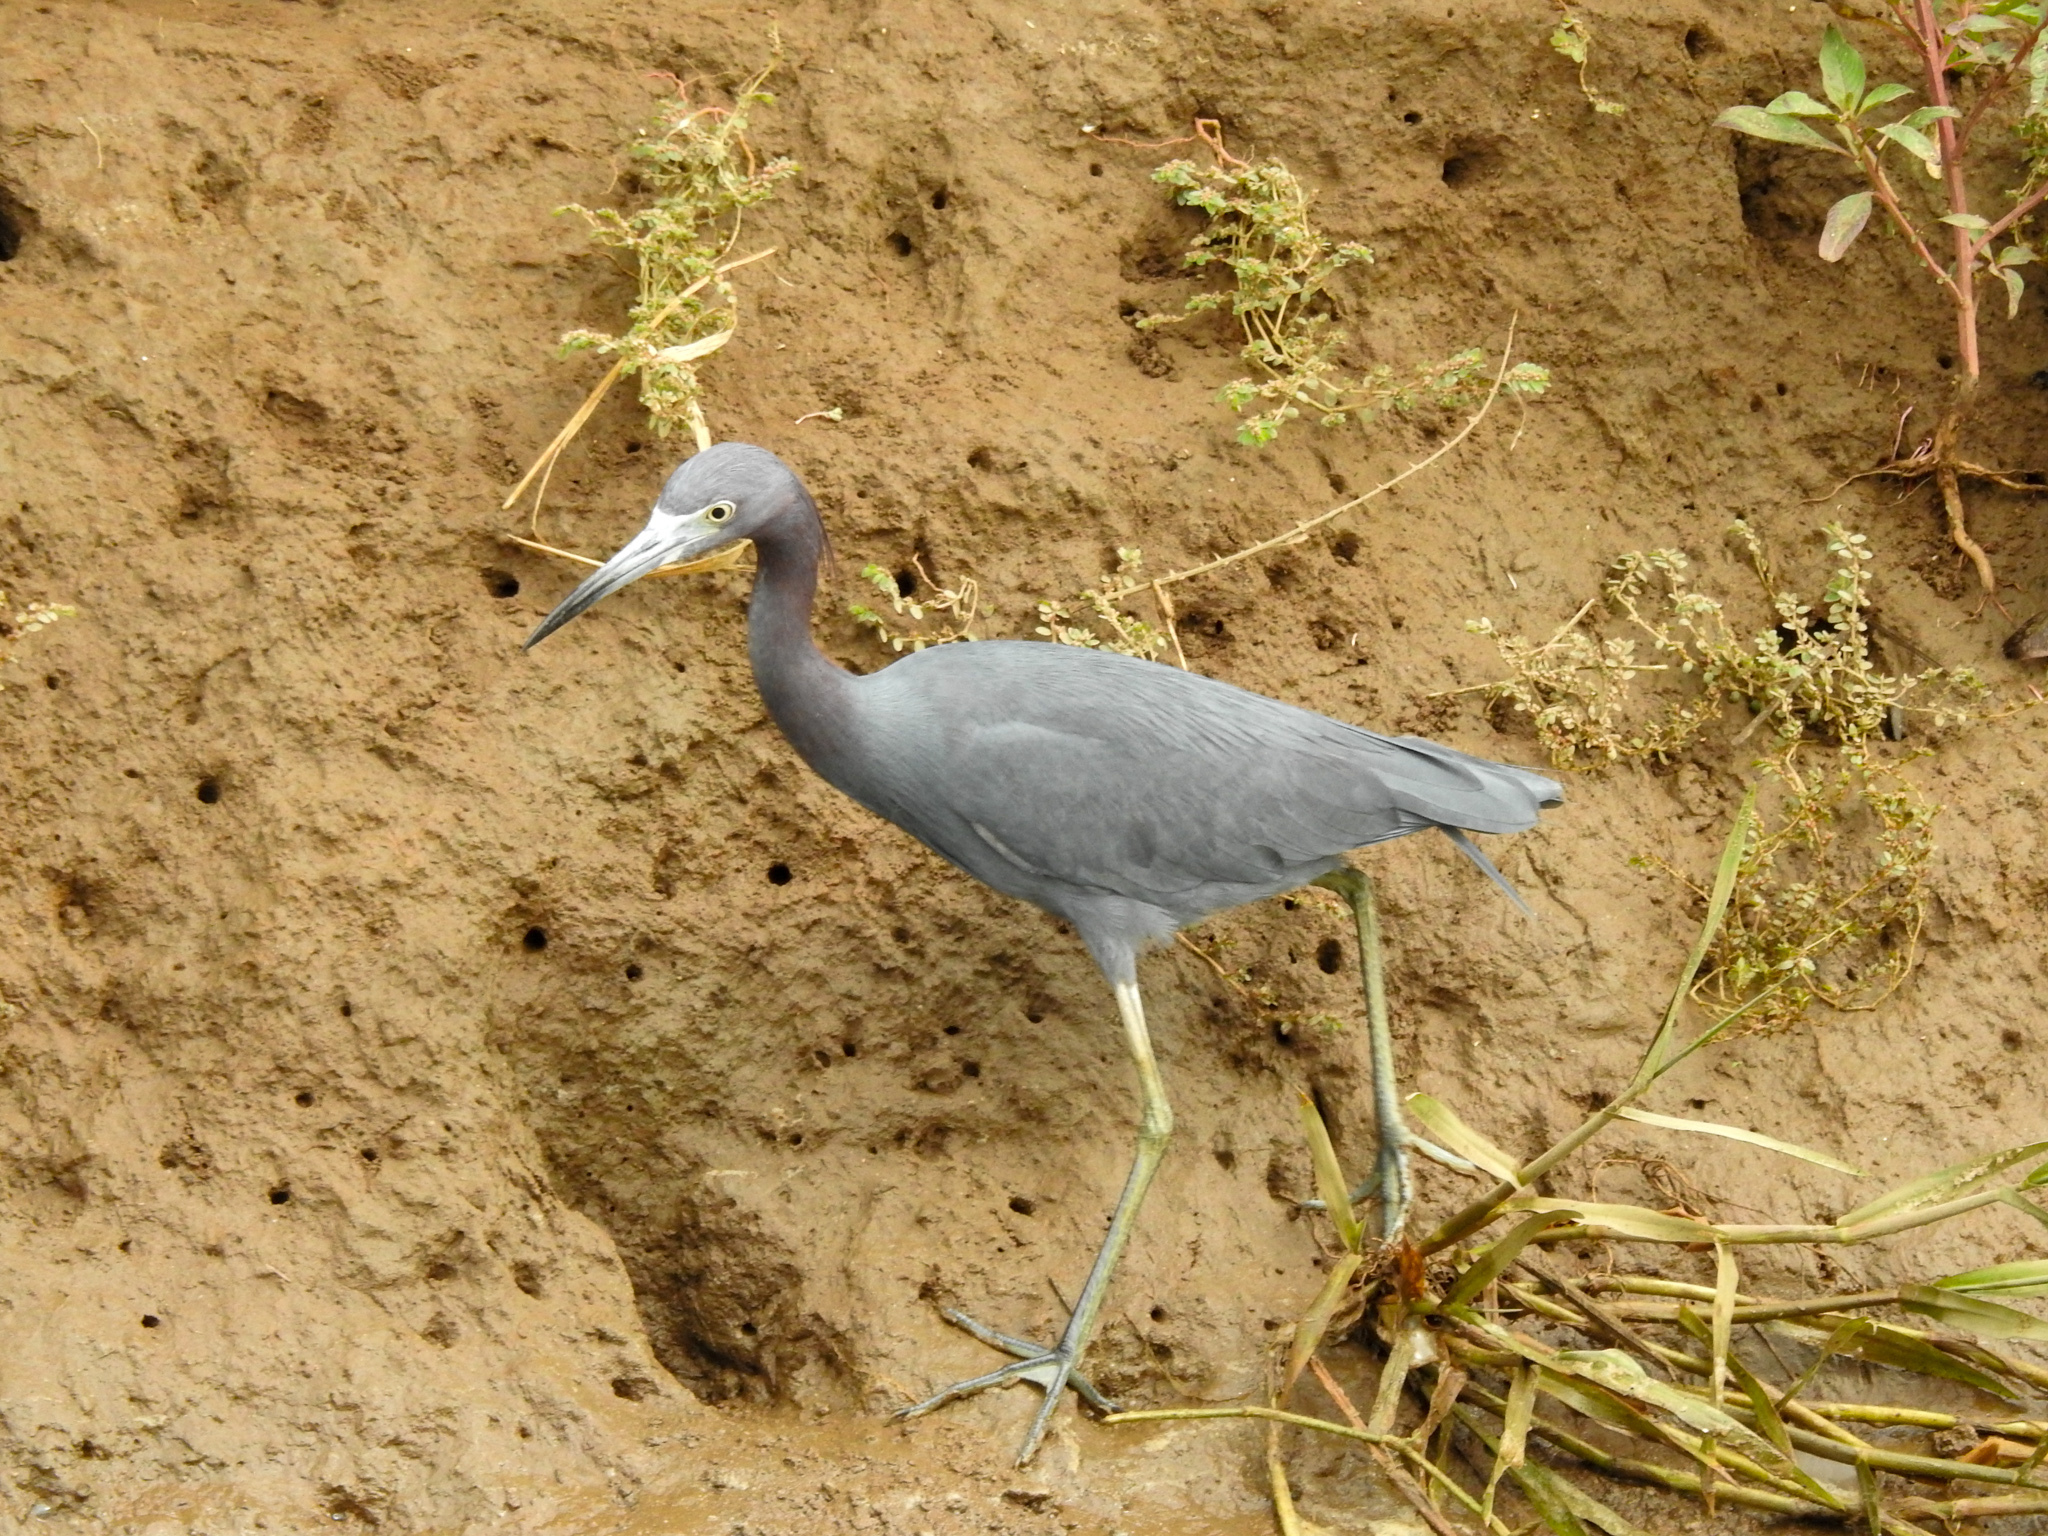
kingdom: Animalia
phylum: Chordata
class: Aves
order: Pelecaniformes
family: Ardeidae
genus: Egretta
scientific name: Egretta caerulea
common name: Little blue heron
